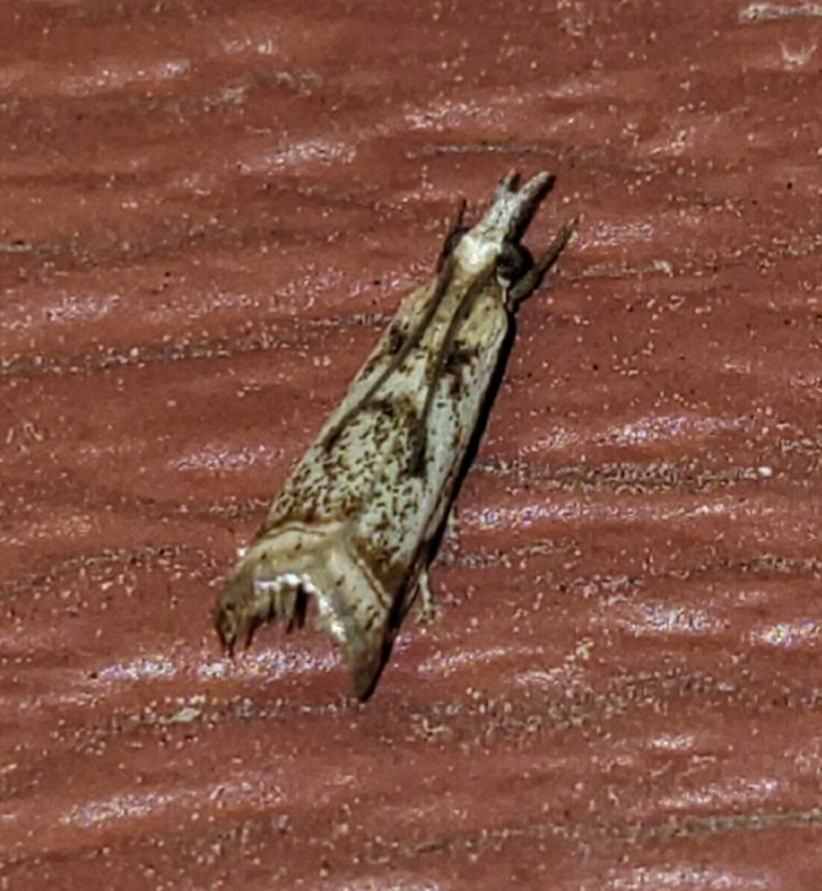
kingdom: Animalia
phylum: Arthropoda
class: Insecta
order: Lepidoptera
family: Crambidae
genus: Microcrambus
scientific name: Microcrambus elegans
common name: Elegant grass-veneer
